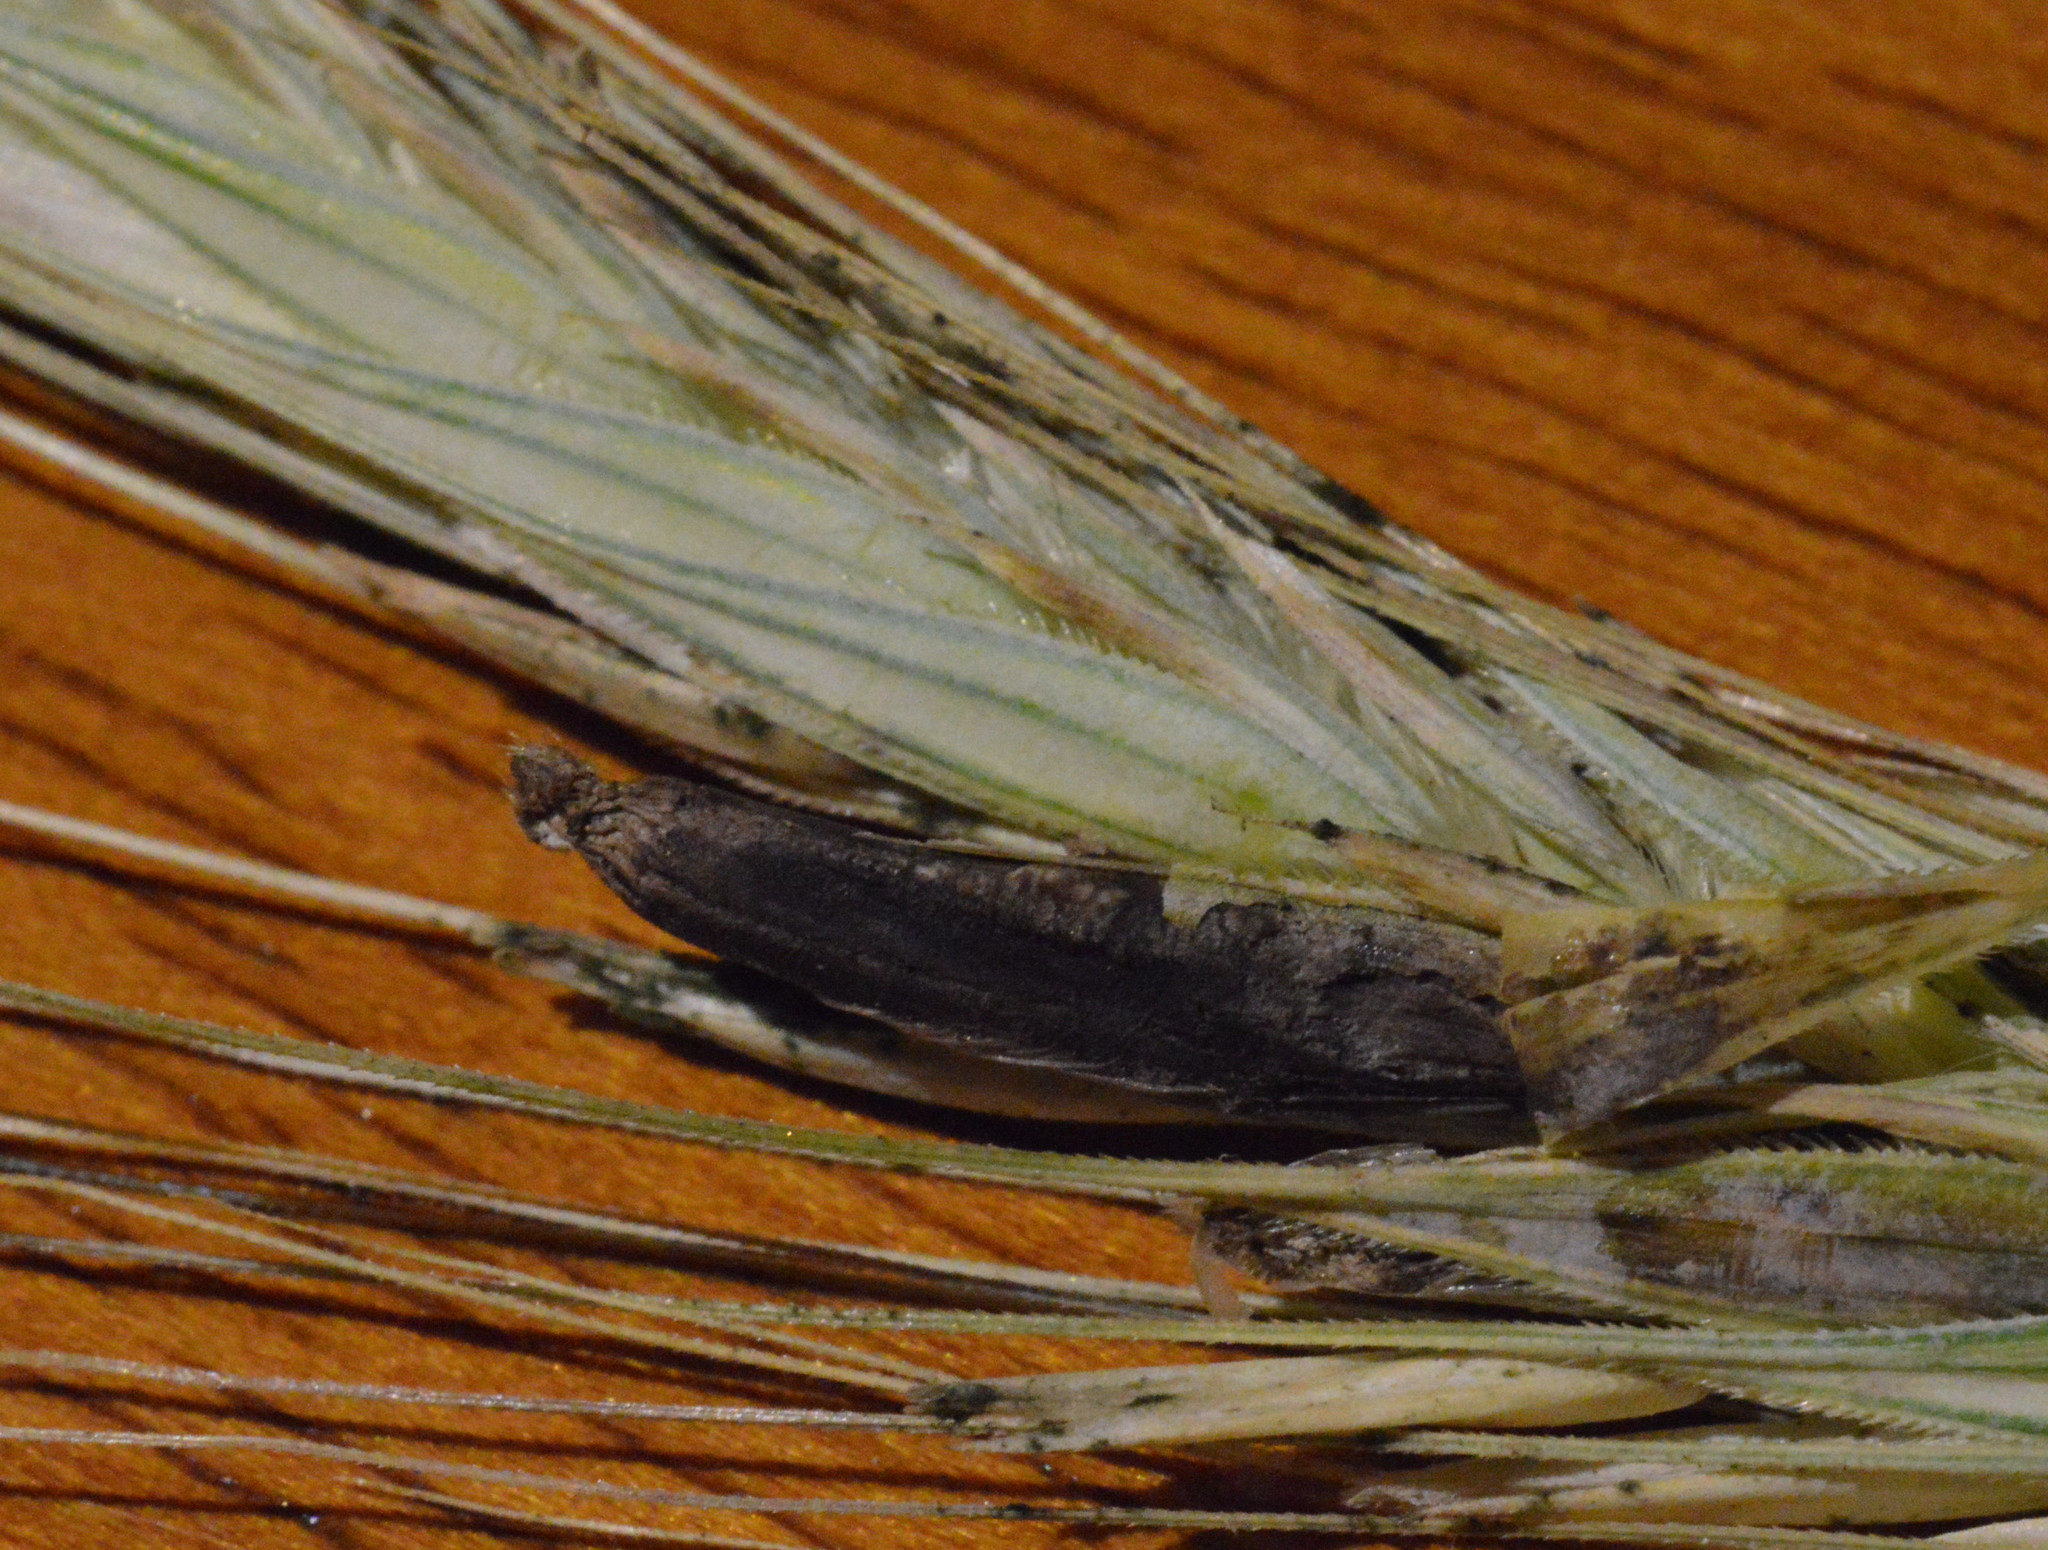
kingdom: Fungi
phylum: Ascomycota
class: Sordariomycetes
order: Hypocreales
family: Clavicipitaceae
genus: Claviceps
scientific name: Claviceps purpurea
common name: Rye ergot
